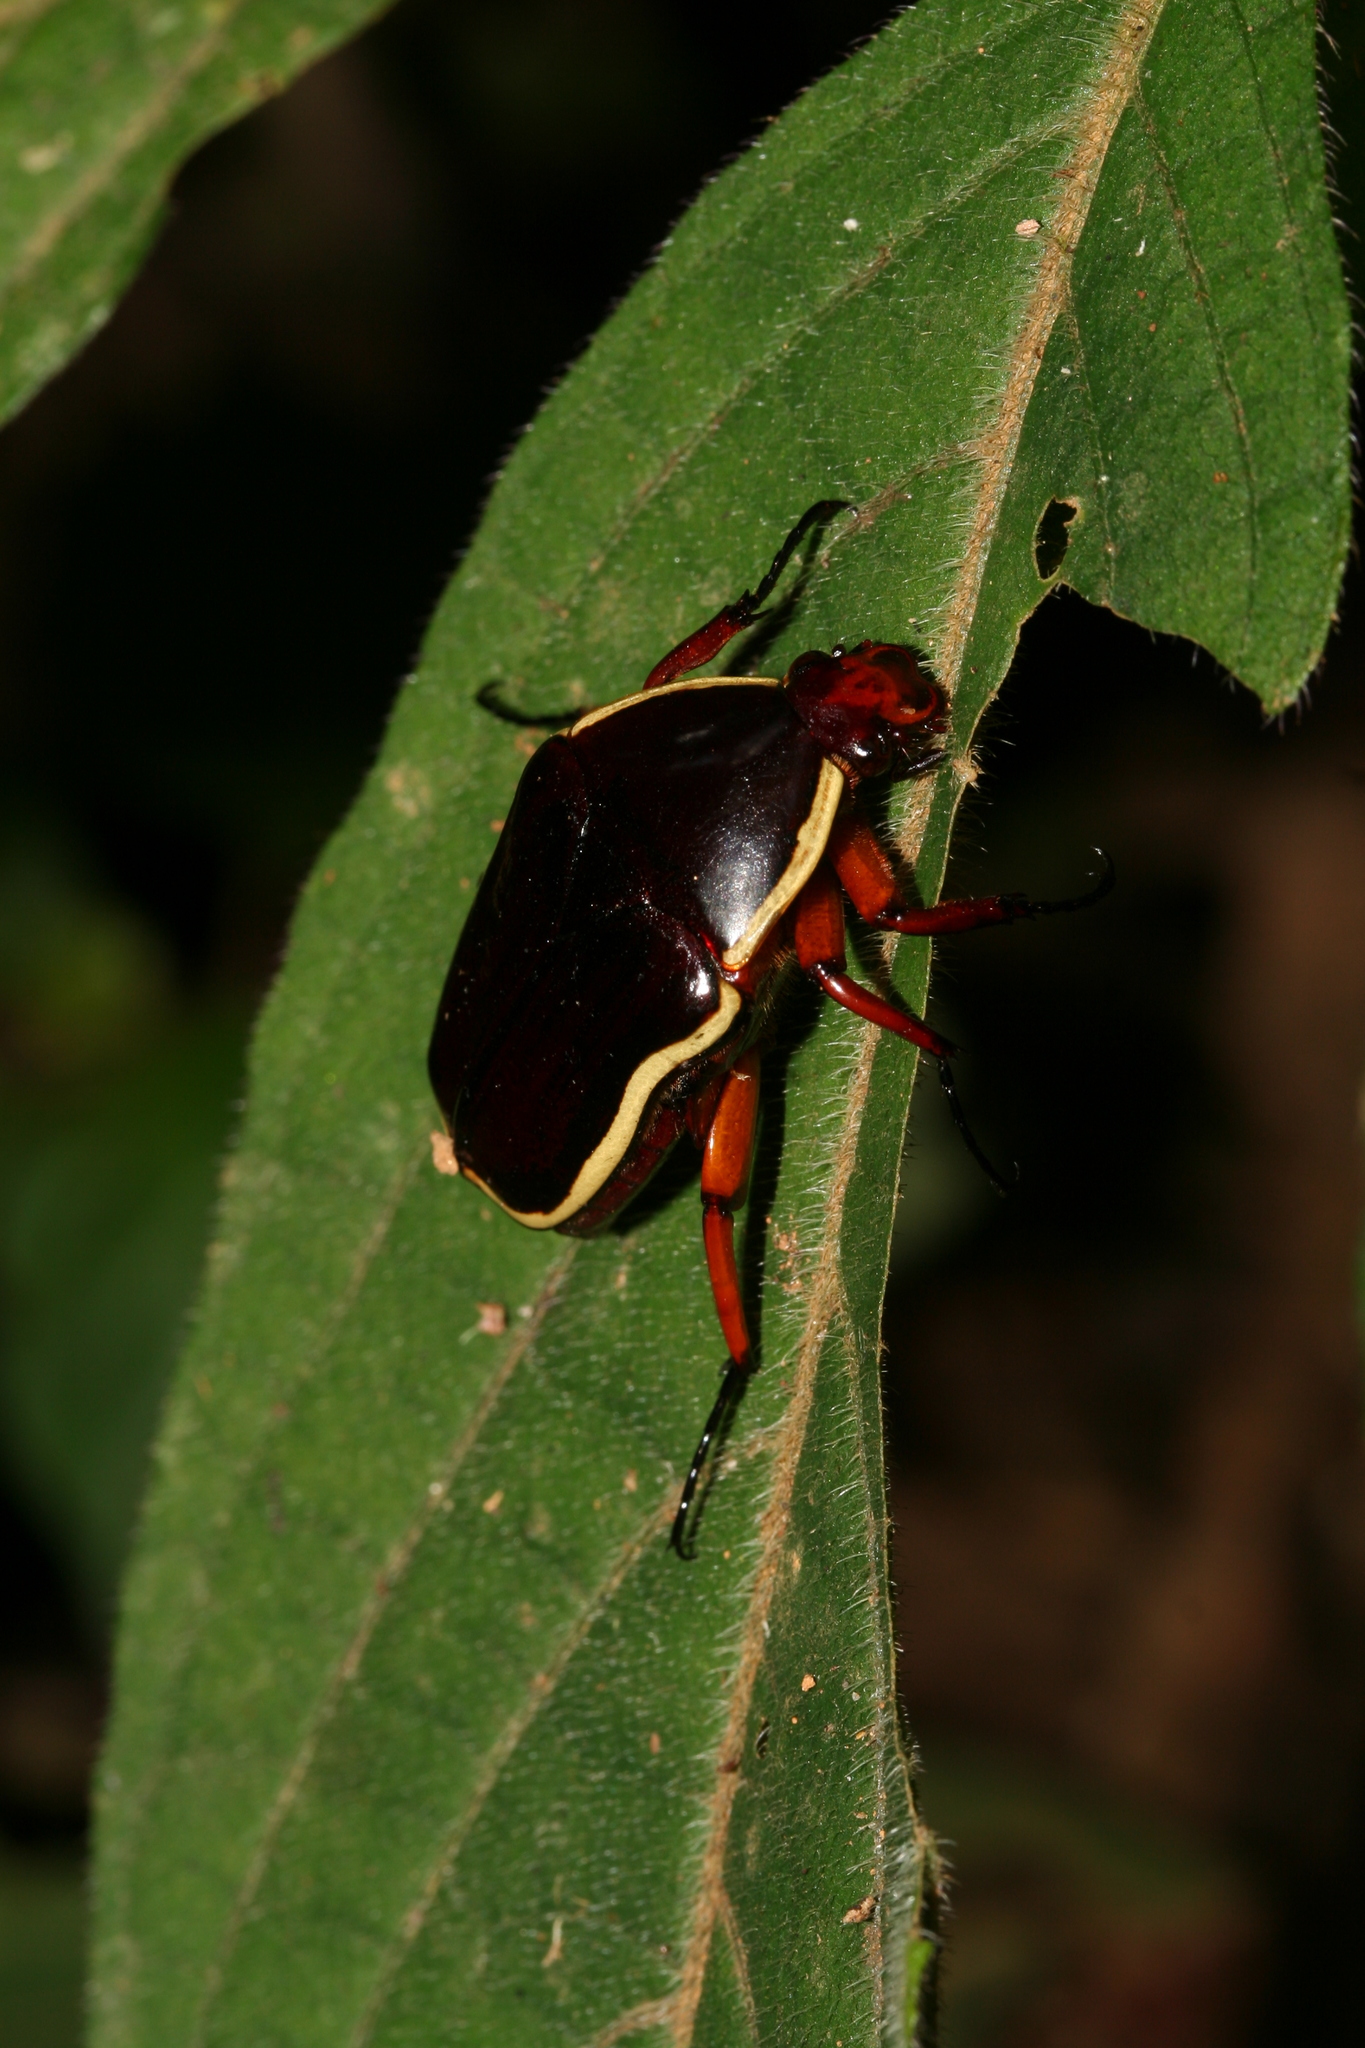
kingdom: Animalia
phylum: Arthropoda
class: Insecta
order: Coleoptera
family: Scarabaeidae
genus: Pantolia
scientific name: Pantolia flavomarginata
